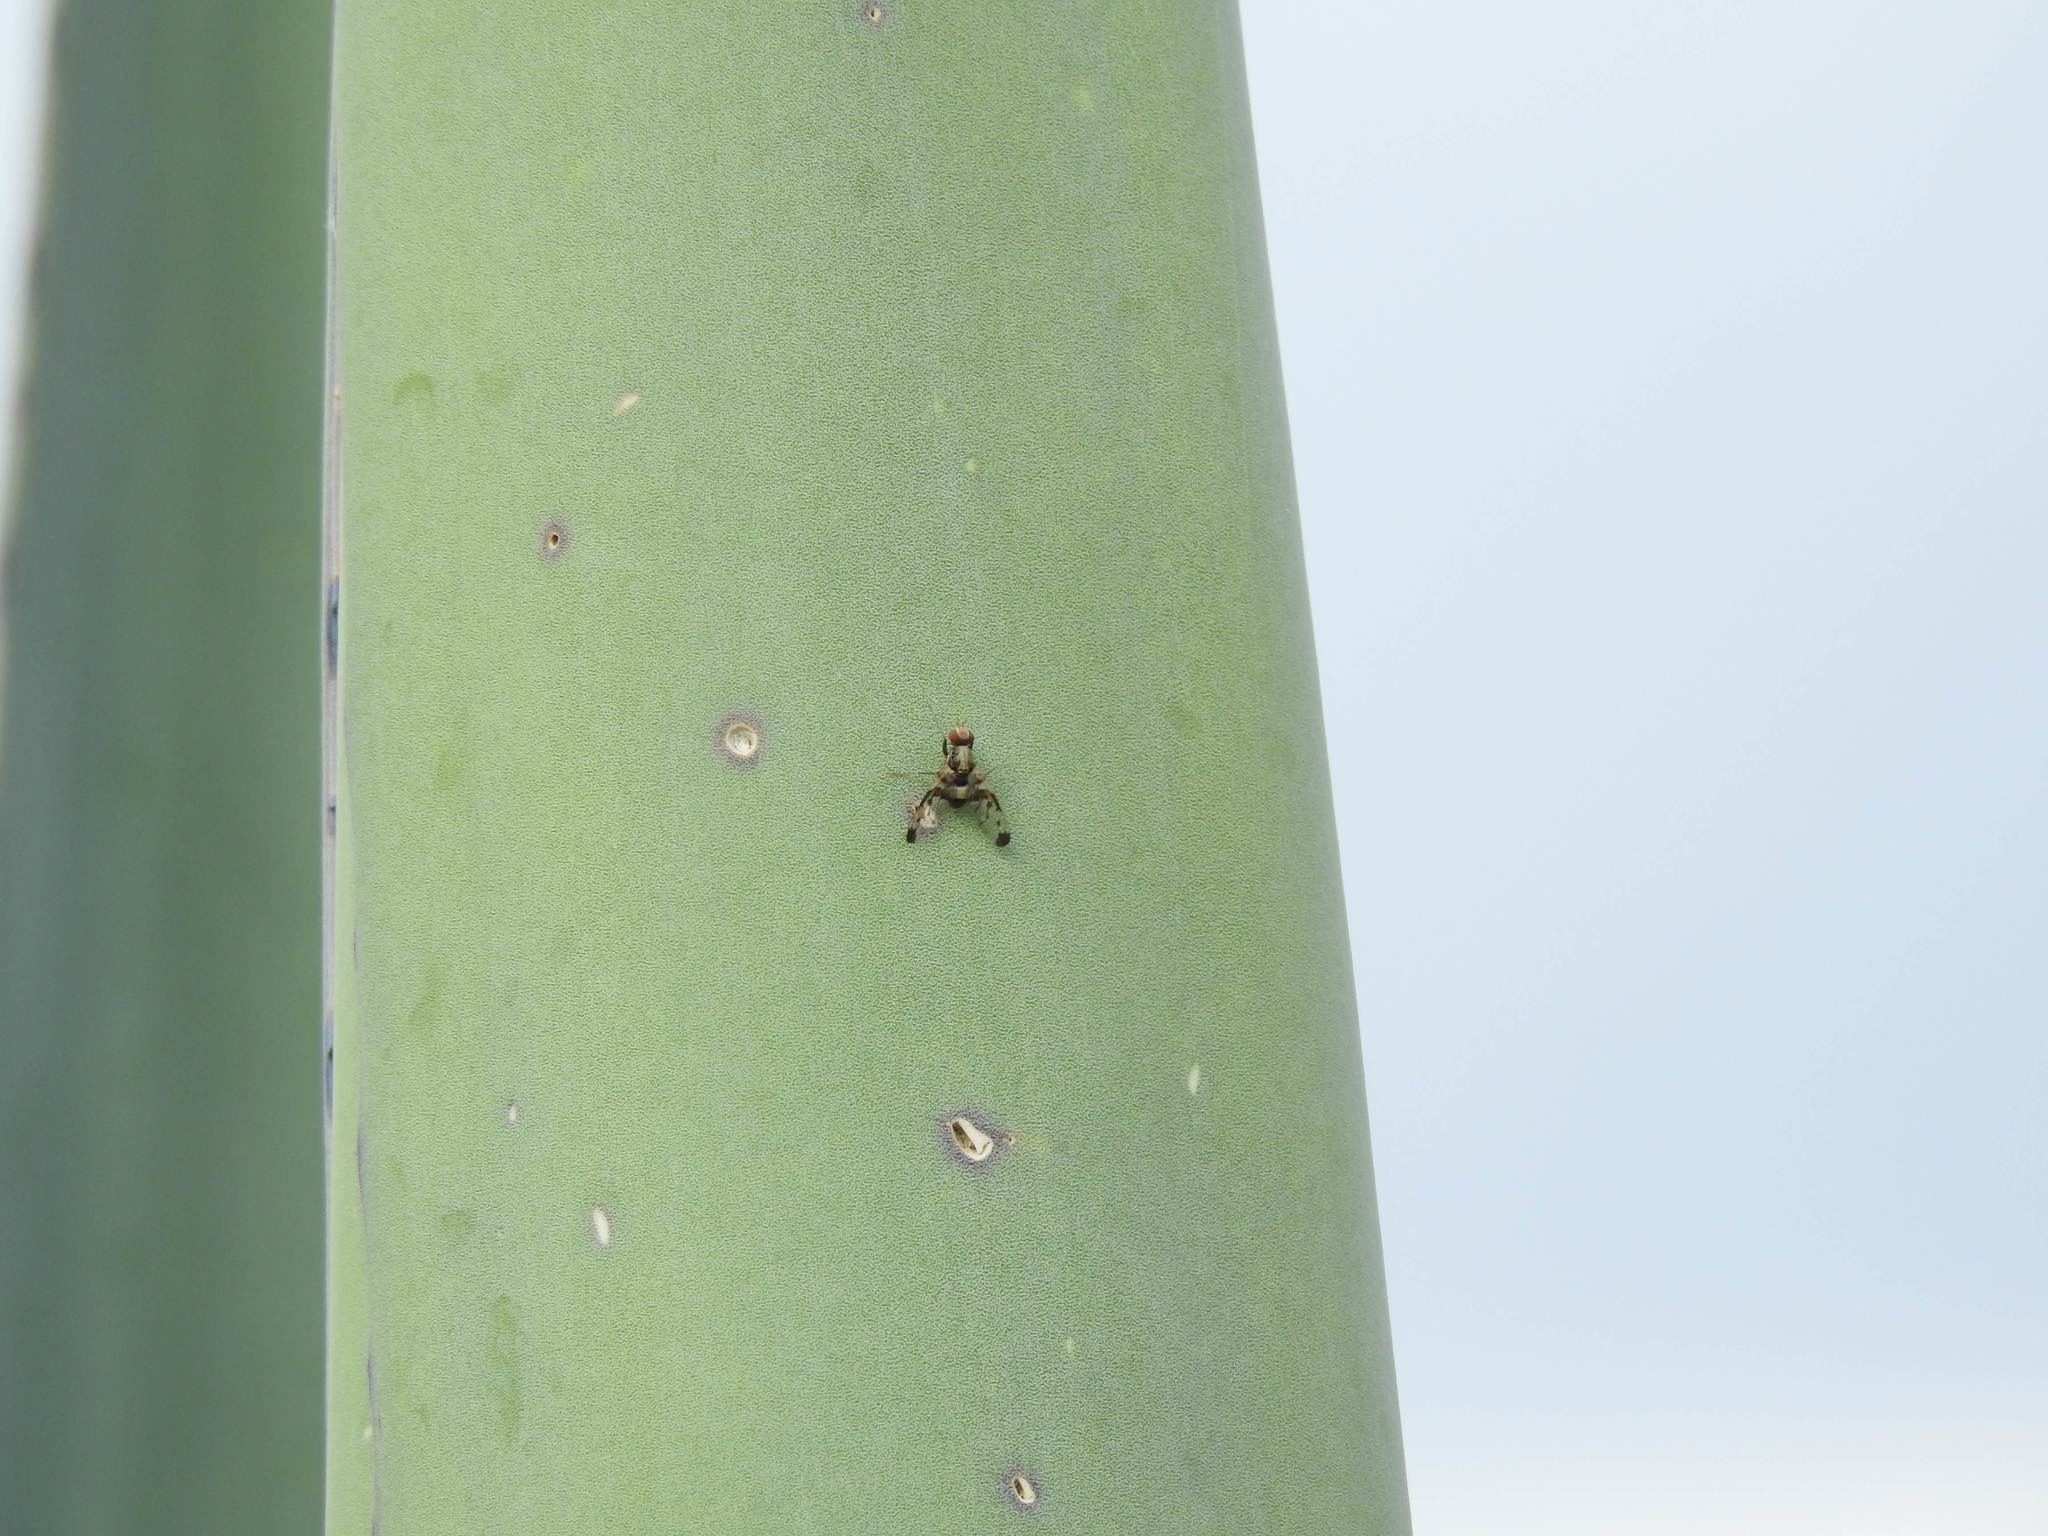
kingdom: Animalia
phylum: Arthropoda
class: Insecta
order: Diptera
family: Ulidiidae
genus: Pseudodyscrasis
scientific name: Pseudodyscrasis scutellaris
